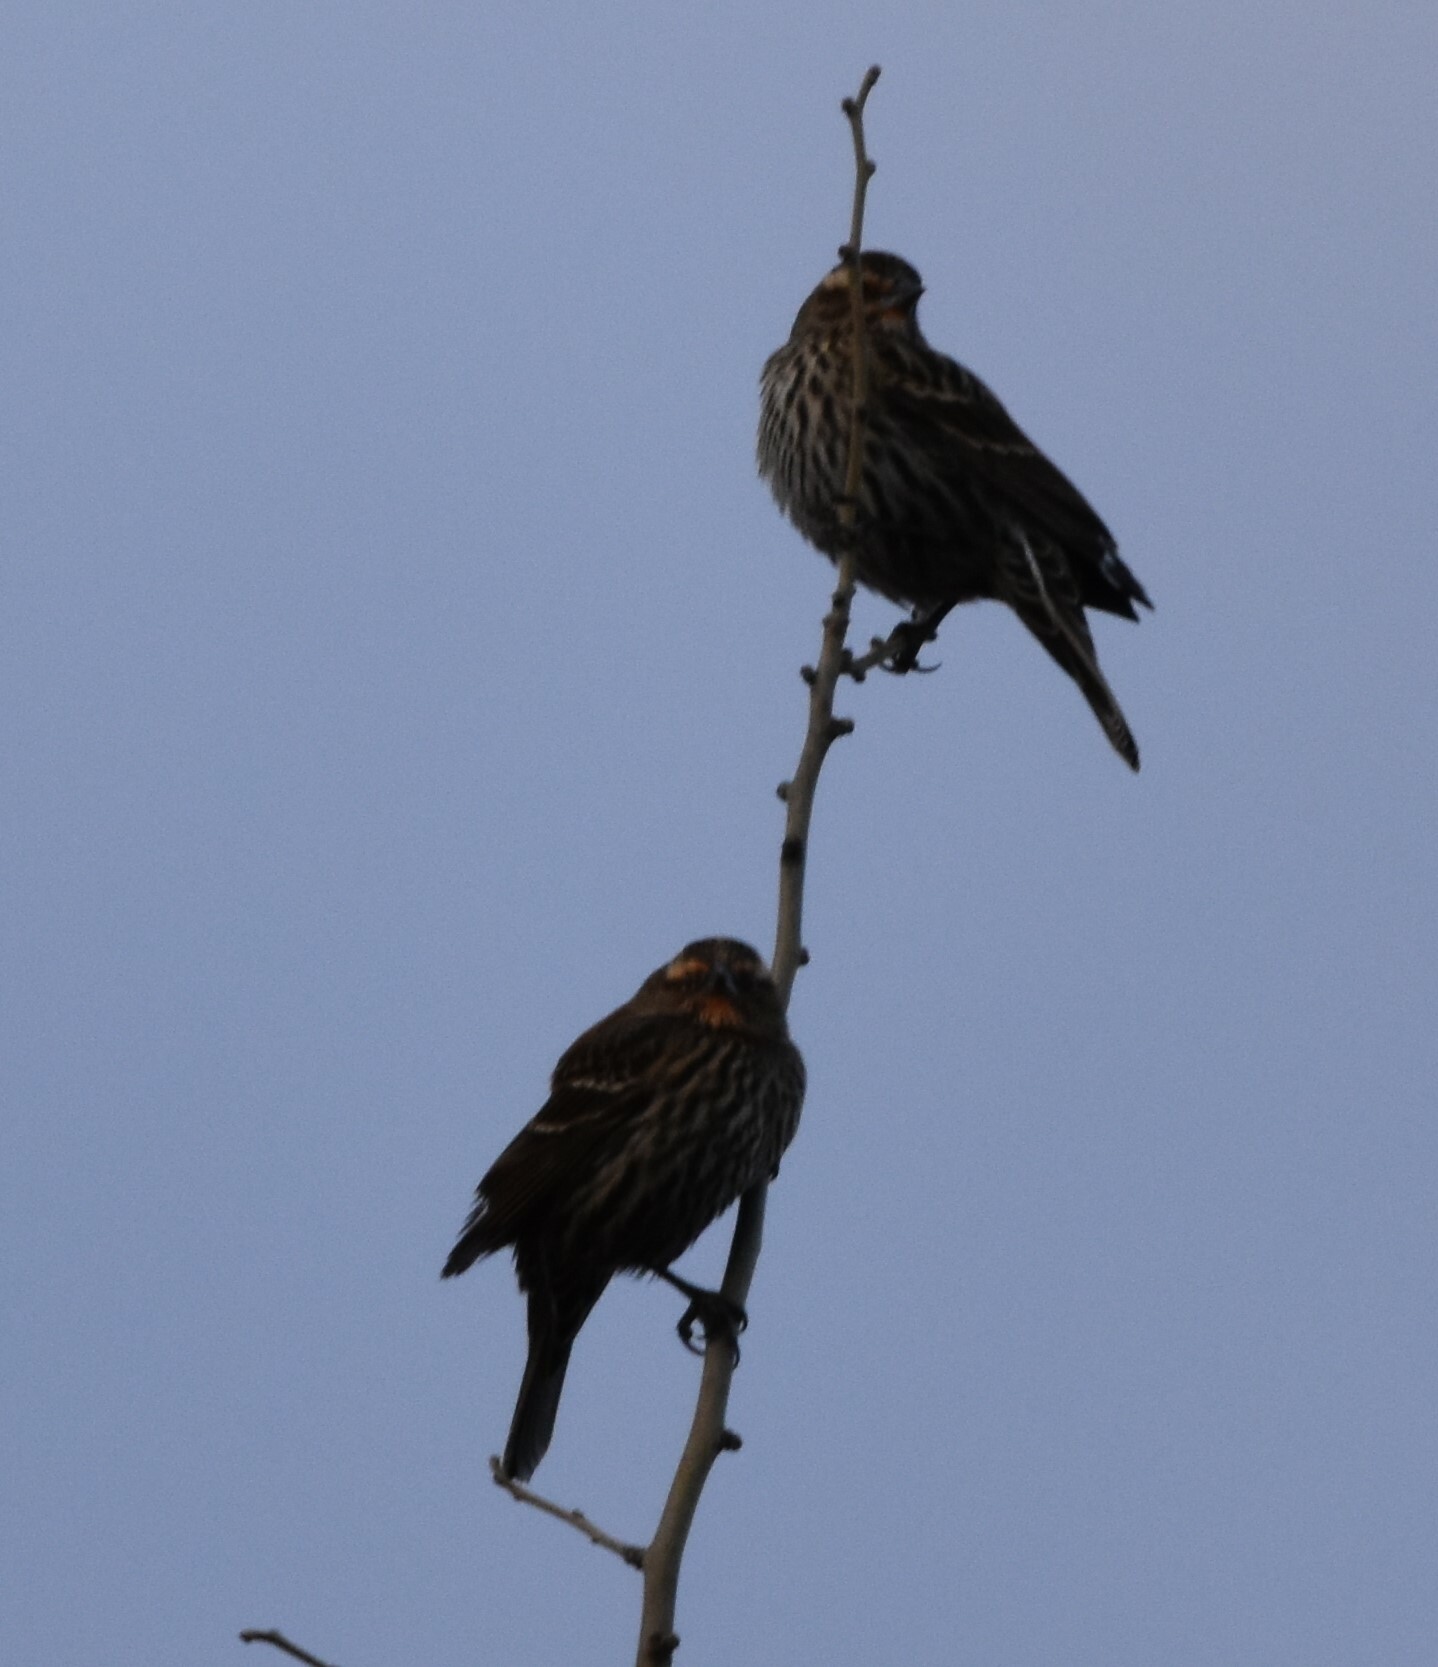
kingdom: Animalia
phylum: Chordata
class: Aves
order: Passeriformes
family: Icteridae
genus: Agelaius
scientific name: Agelaius phoeniceus
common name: Red-winged blackbird
